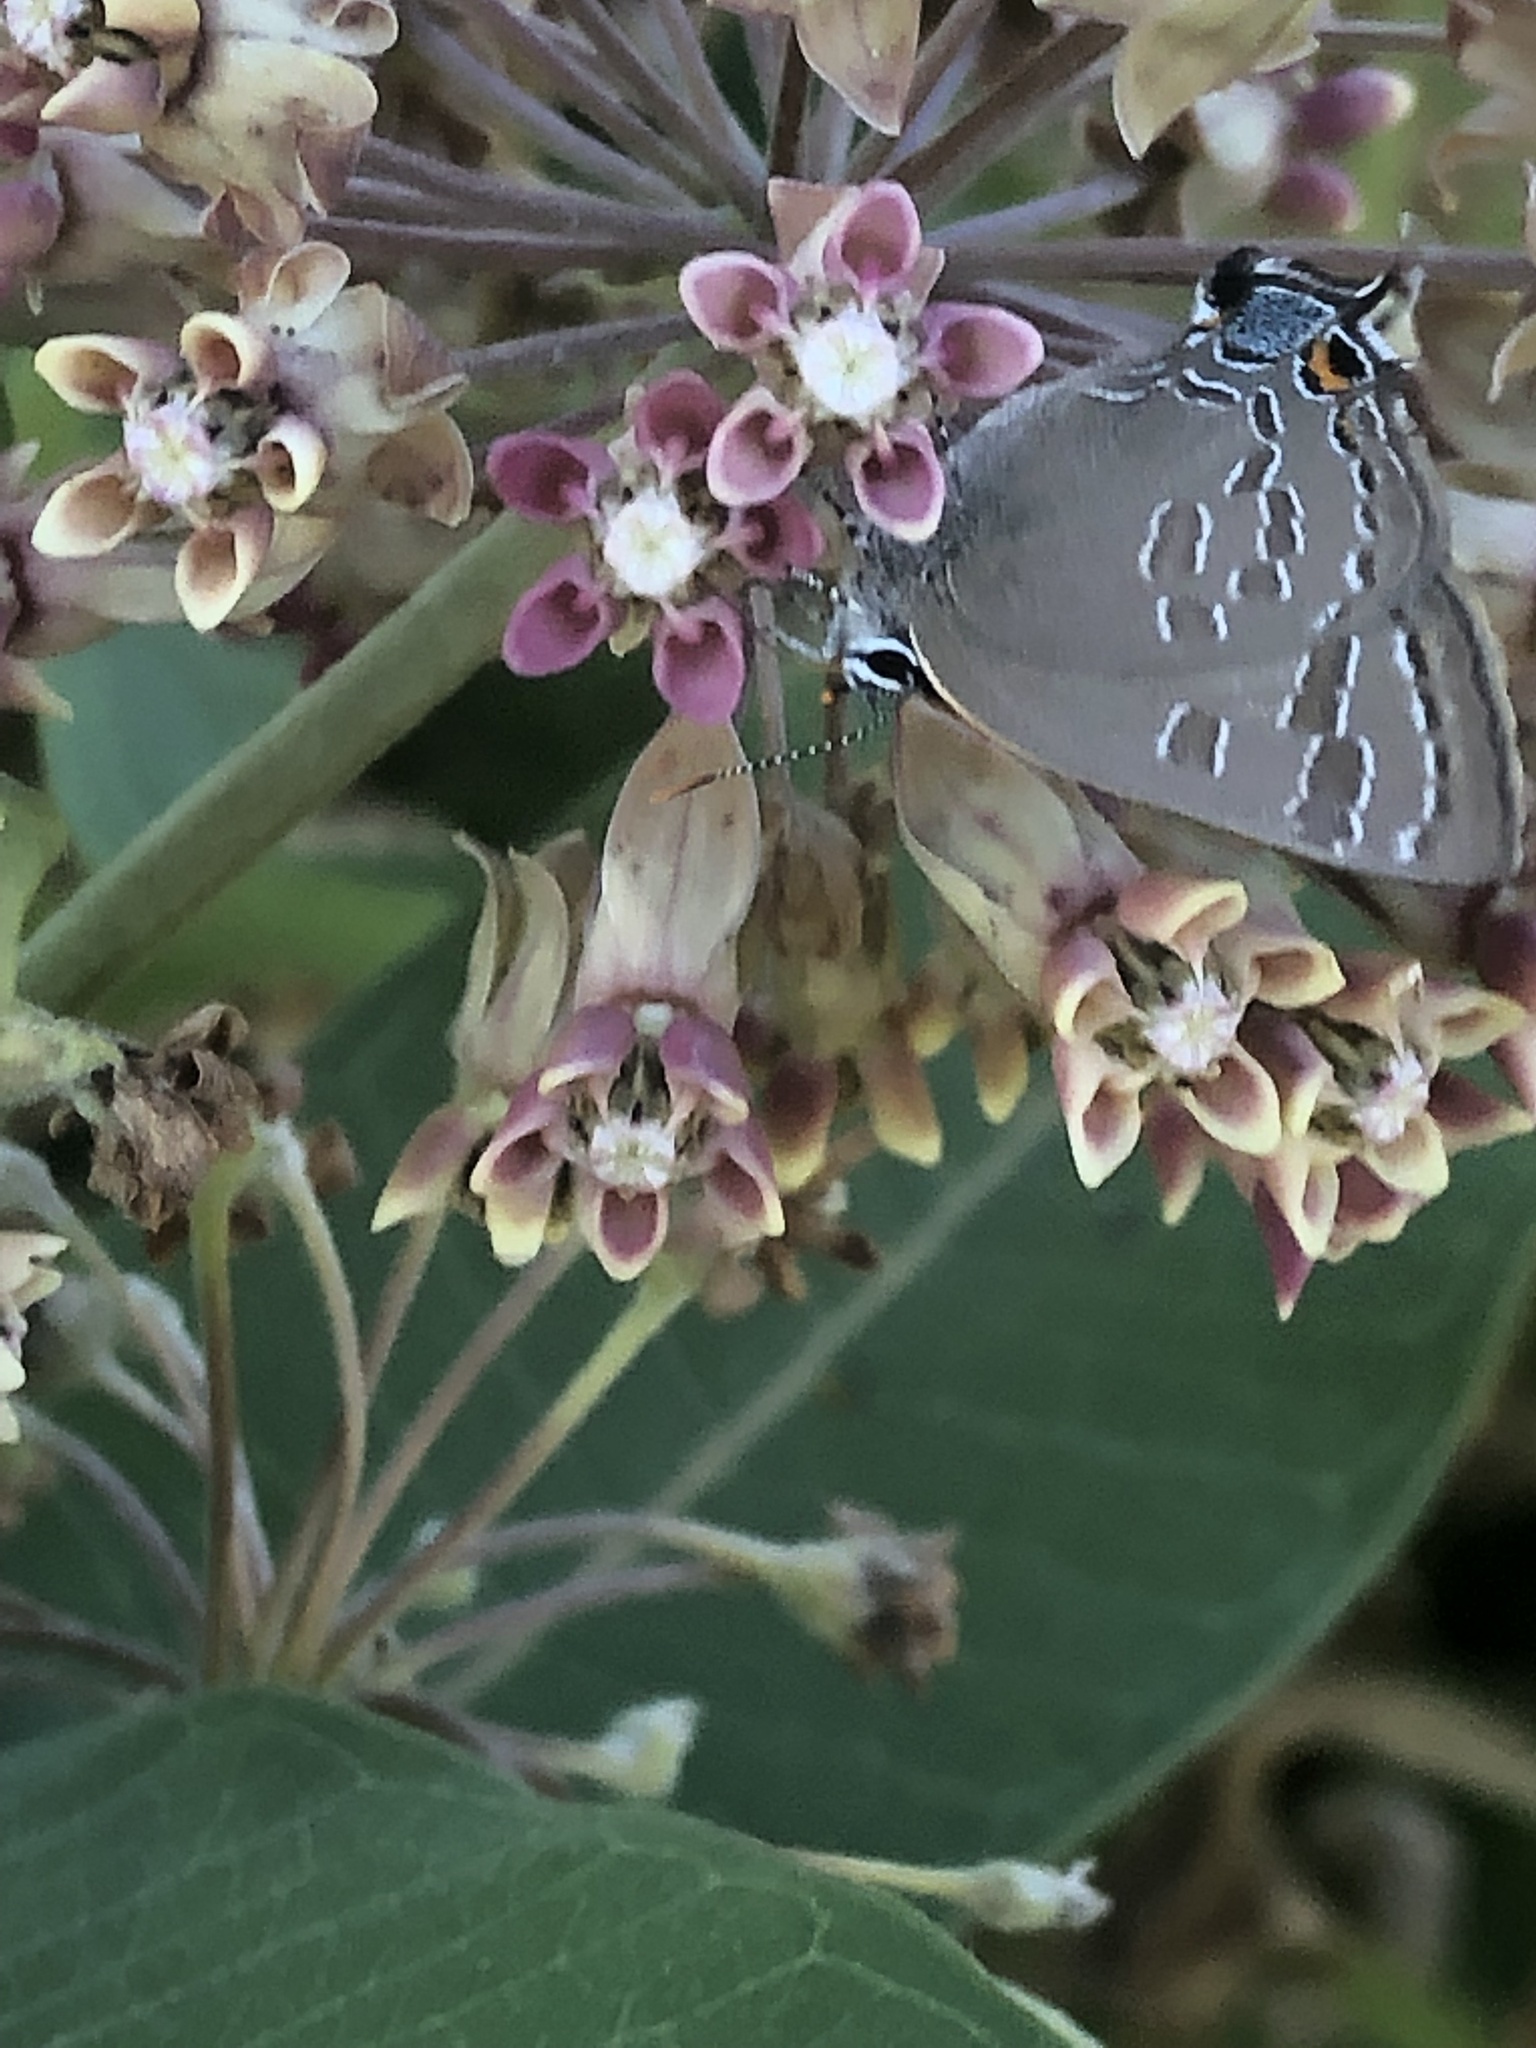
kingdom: Animalia
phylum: Arthropoda
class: Insecta
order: Lepidoptera
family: Lycaenidae
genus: Strymon
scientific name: Strymon caryaevorus
